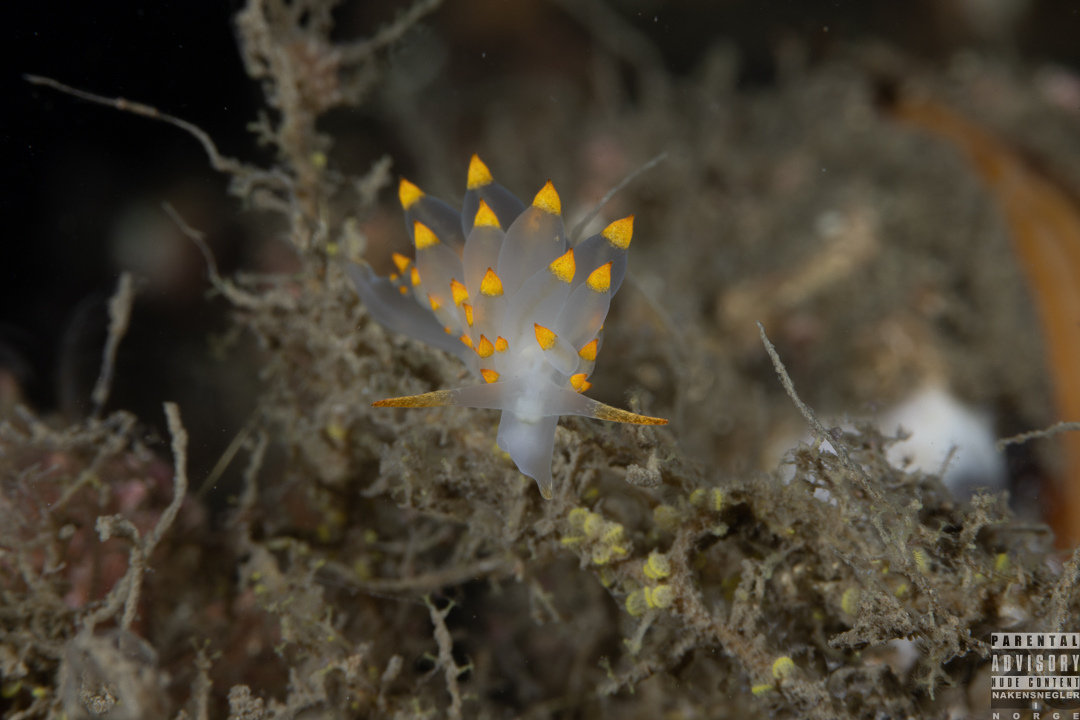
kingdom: Animalia
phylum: Mollusca
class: Gastropoda
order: Nudibranchia
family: Eubranchidae
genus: Amphorina
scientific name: Amphorina farrani
